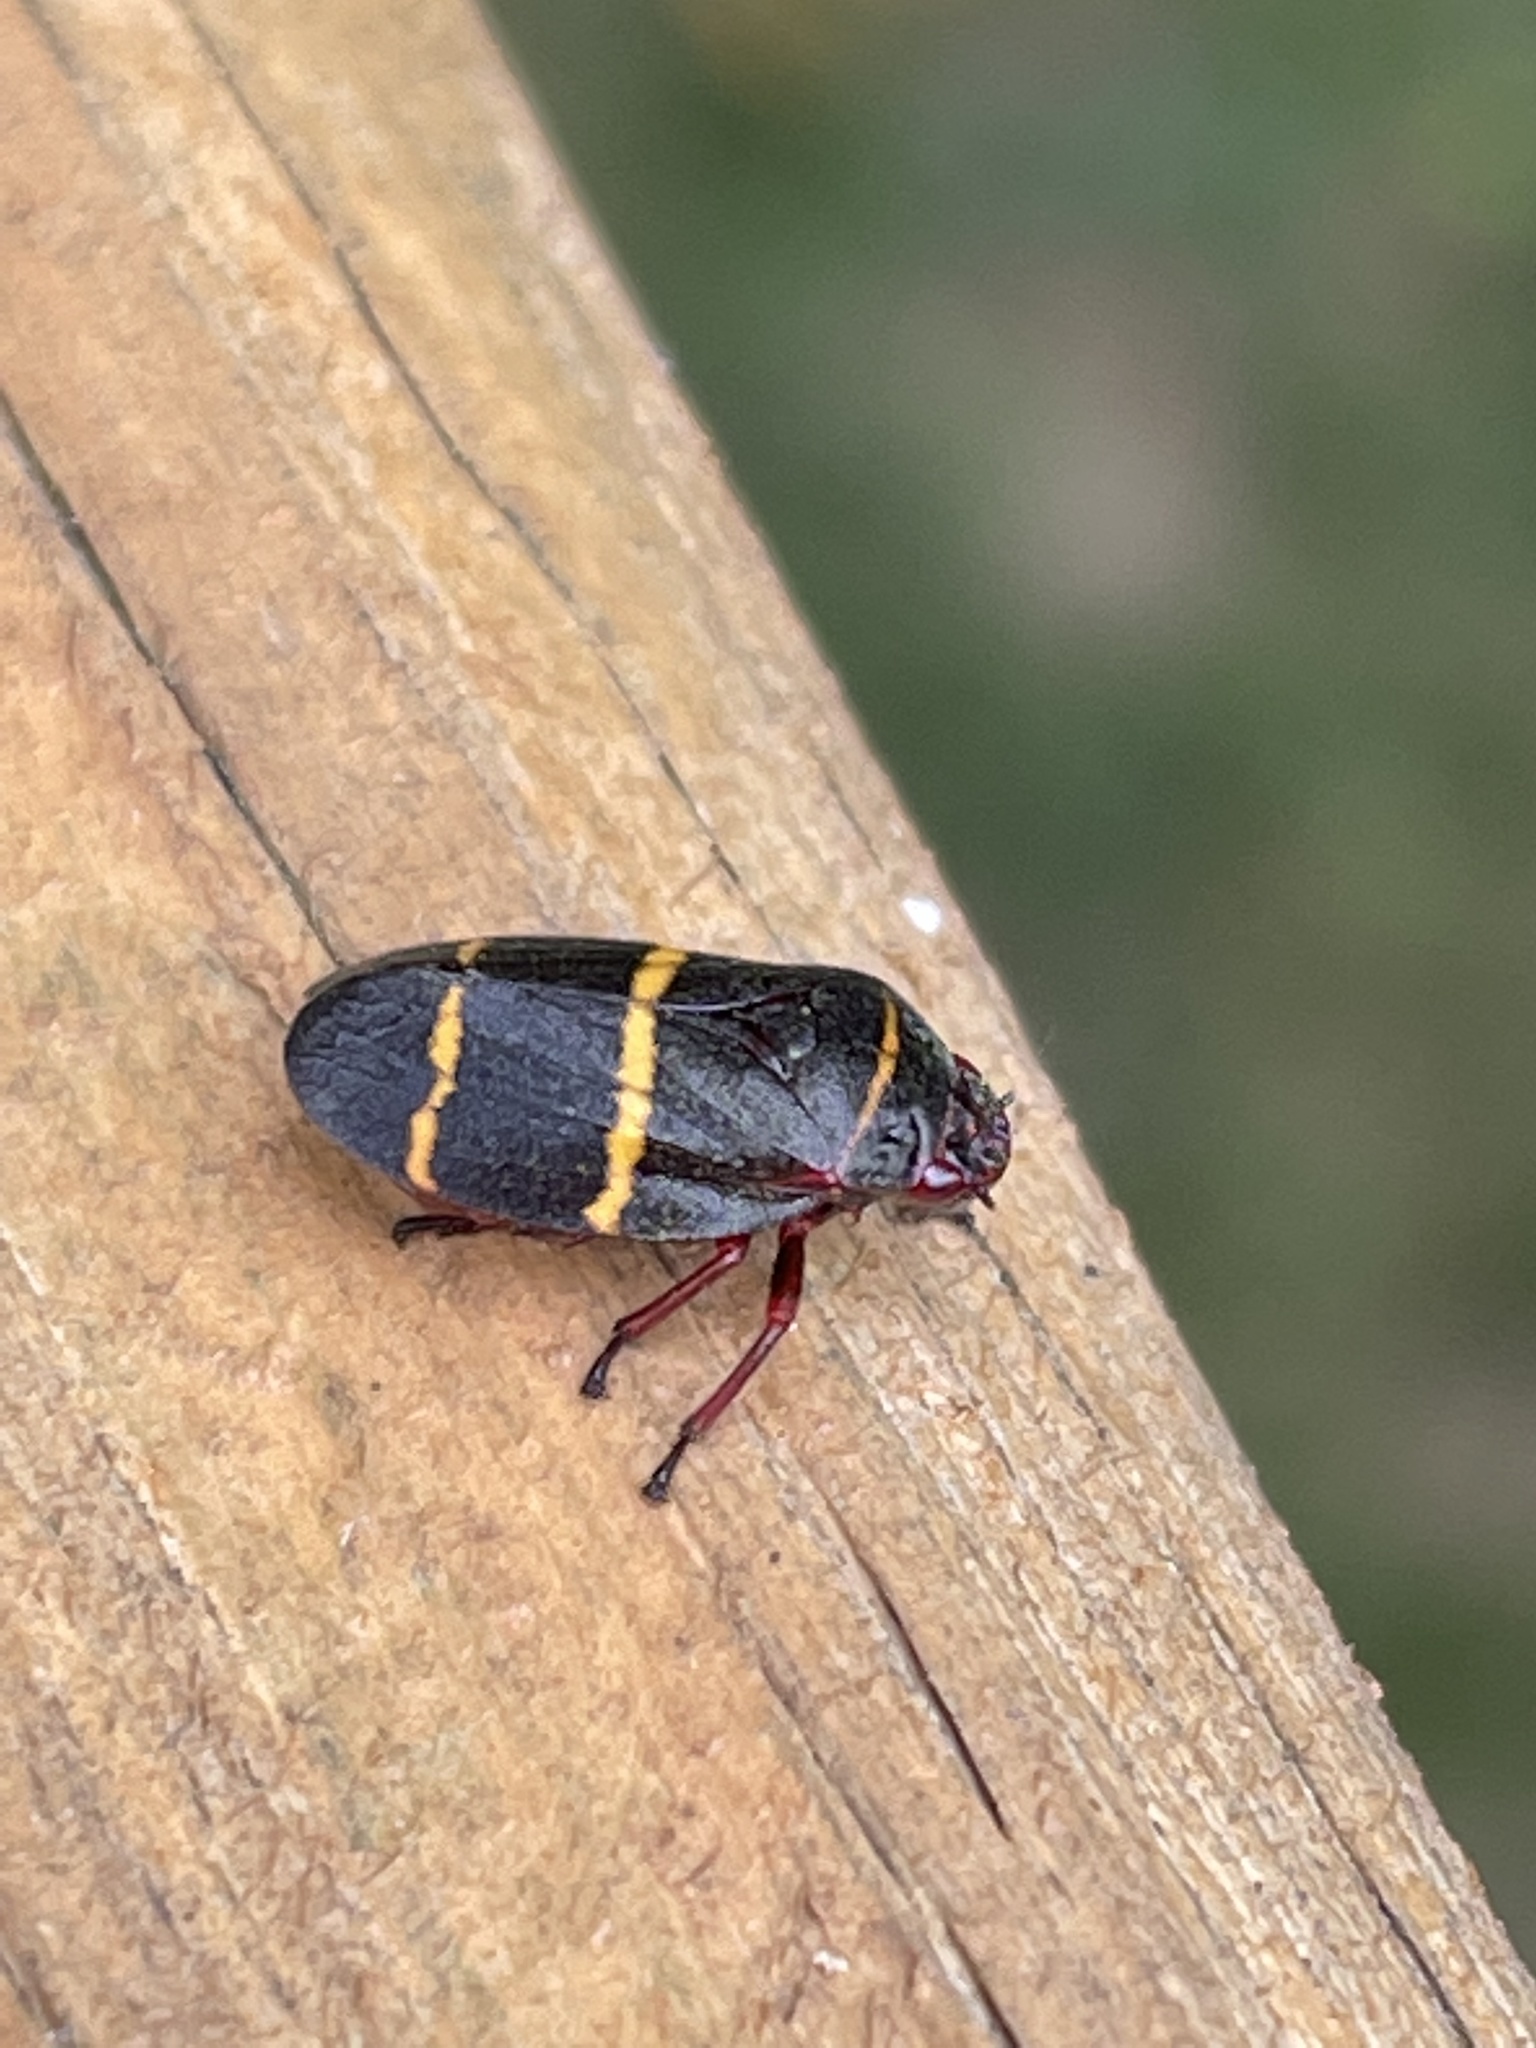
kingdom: Animalia
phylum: Arthropoda
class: Insecta
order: Hemiptera
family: Cercopidae
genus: Prosapia
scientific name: Prosapia bicincta
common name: Twolined spittlebug
